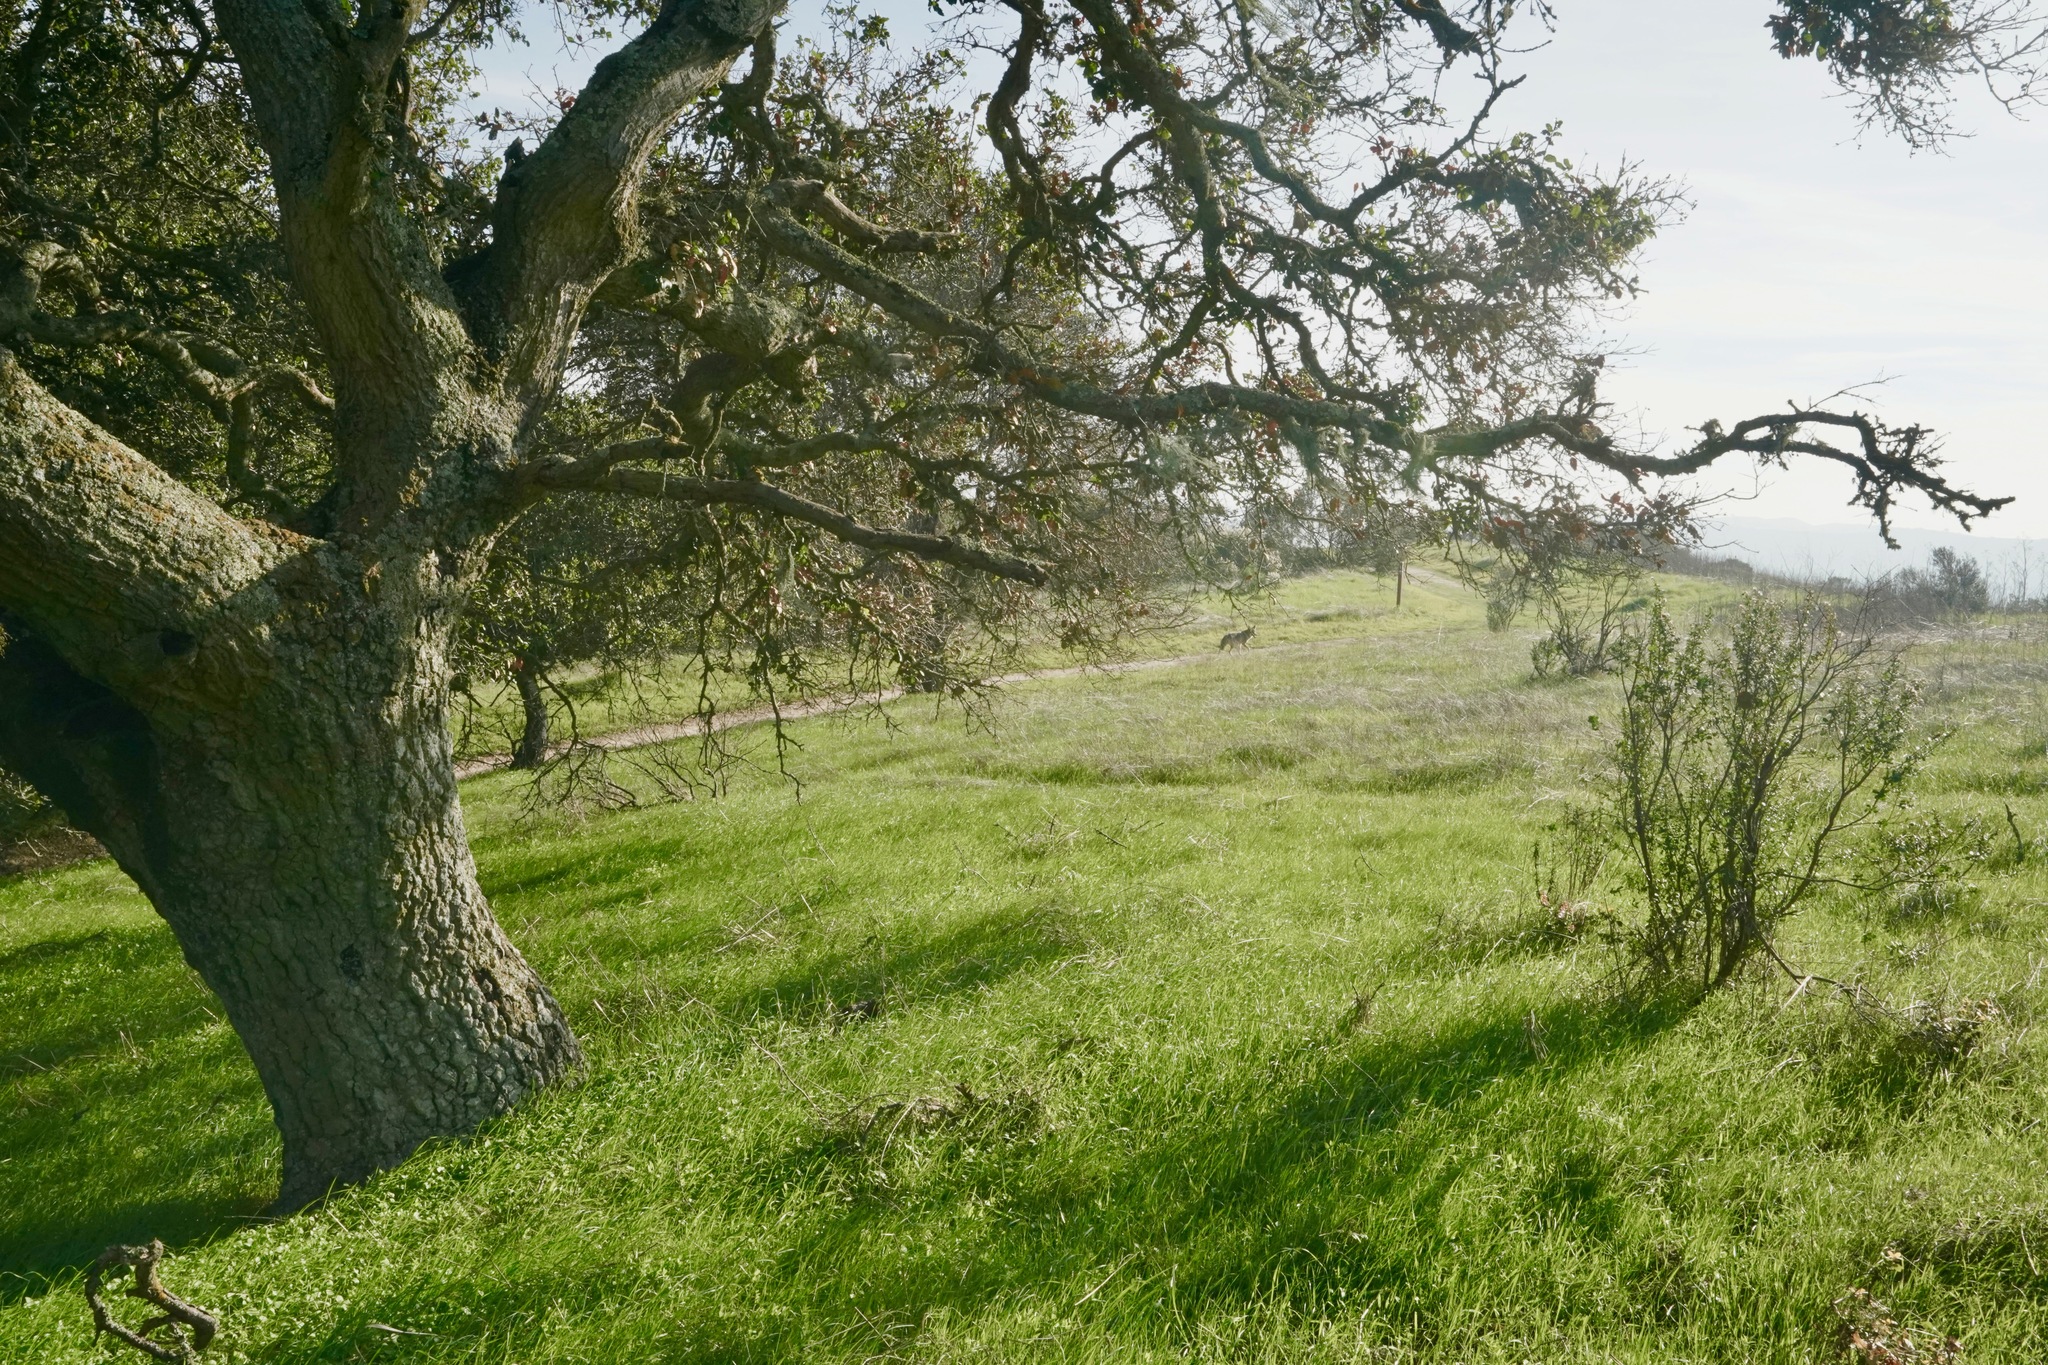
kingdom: Animalia
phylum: Chordata
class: Mammalia
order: Carnivora
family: Canidae
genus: Canis
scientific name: Canis latrans
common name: Coyote
